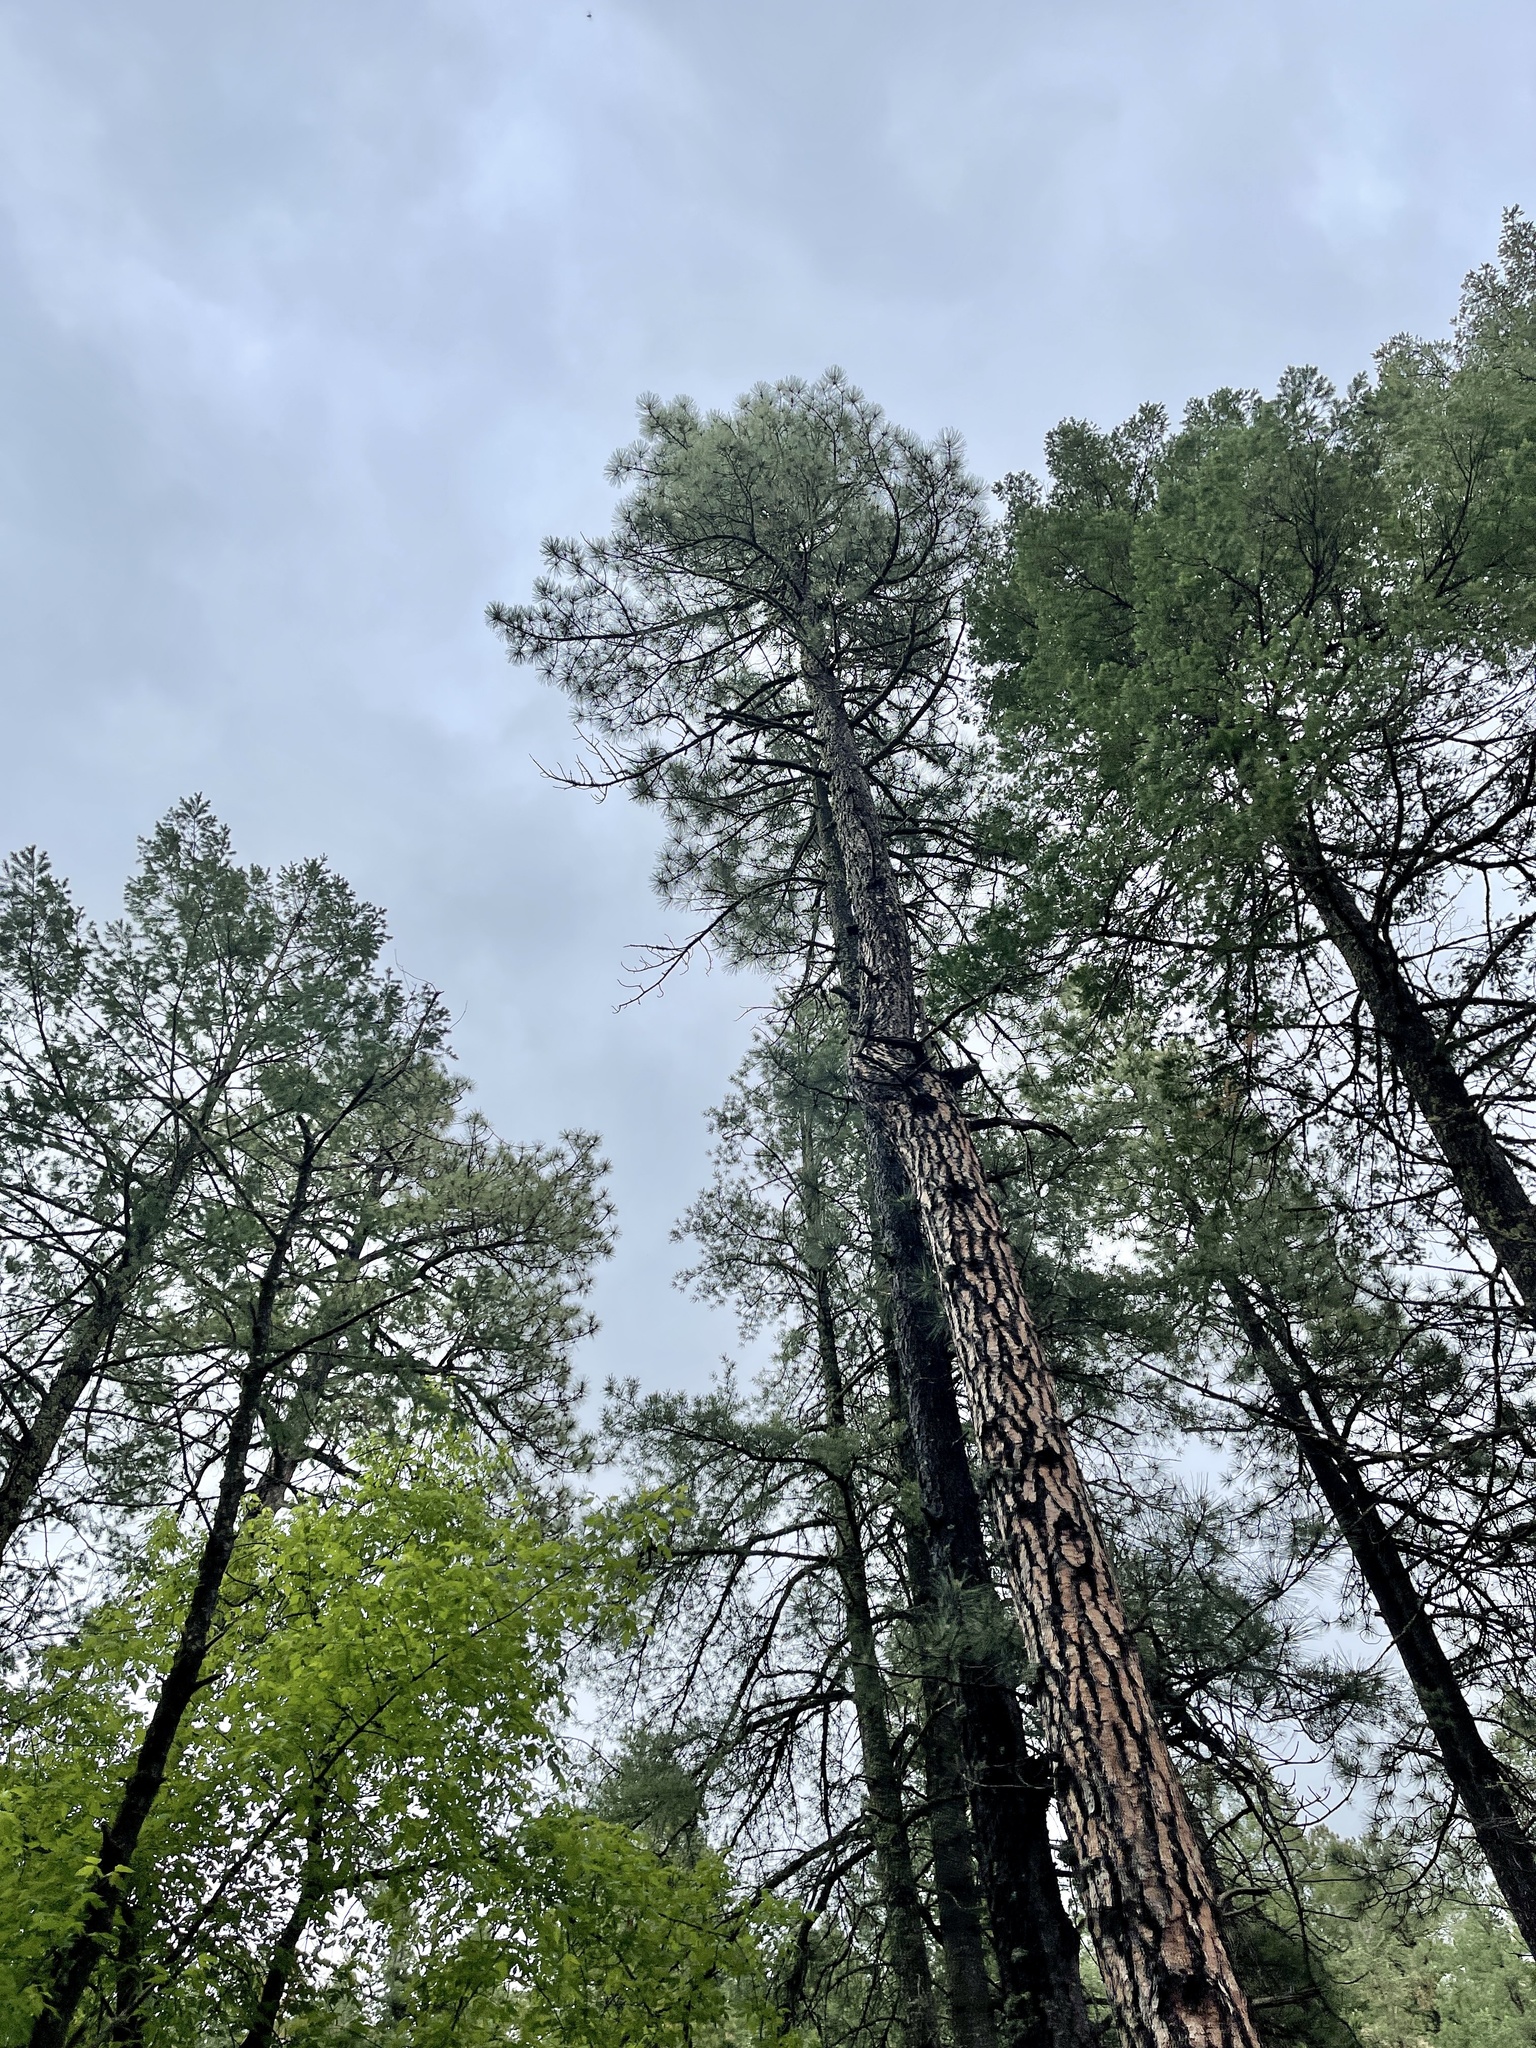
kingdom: Plantae
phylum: Tracheophyta
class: Pinopsida
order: Pinales
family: Pinaceae
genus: Pinus
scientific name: Pinus ponderosa
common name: Western yellow-pine
